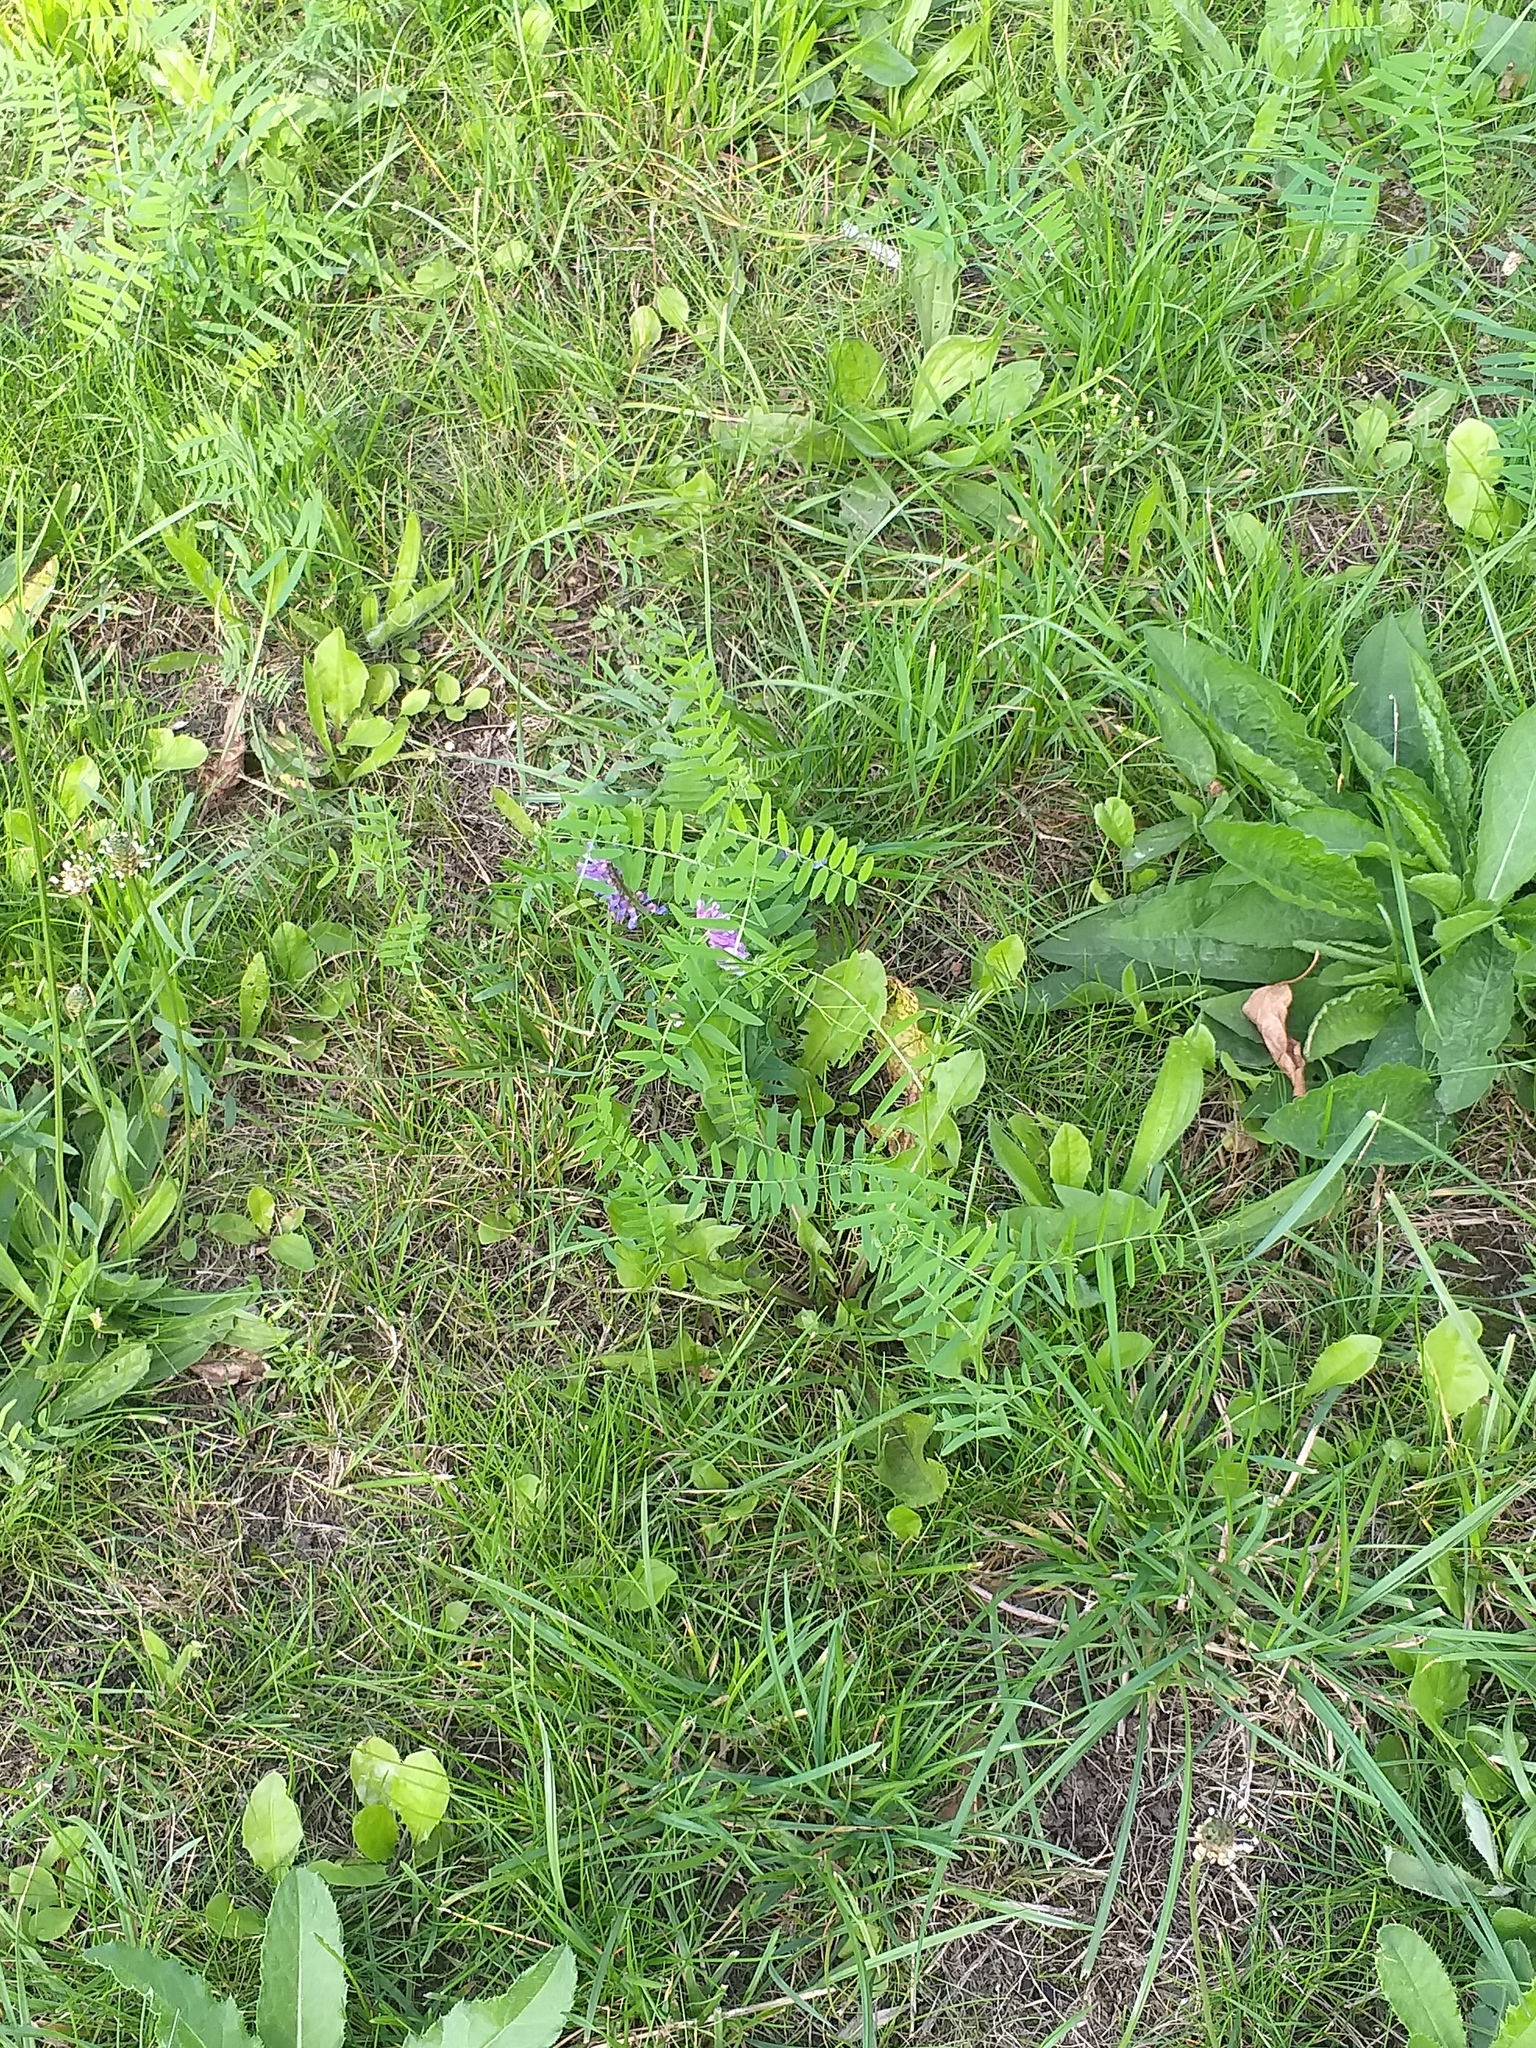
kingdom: Plantae
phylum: Tracheophyta
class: Magnoliopsida
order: Fabales
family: Fabaceae
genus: Vicia
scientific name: Vicia cracca
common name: Bird vetch
